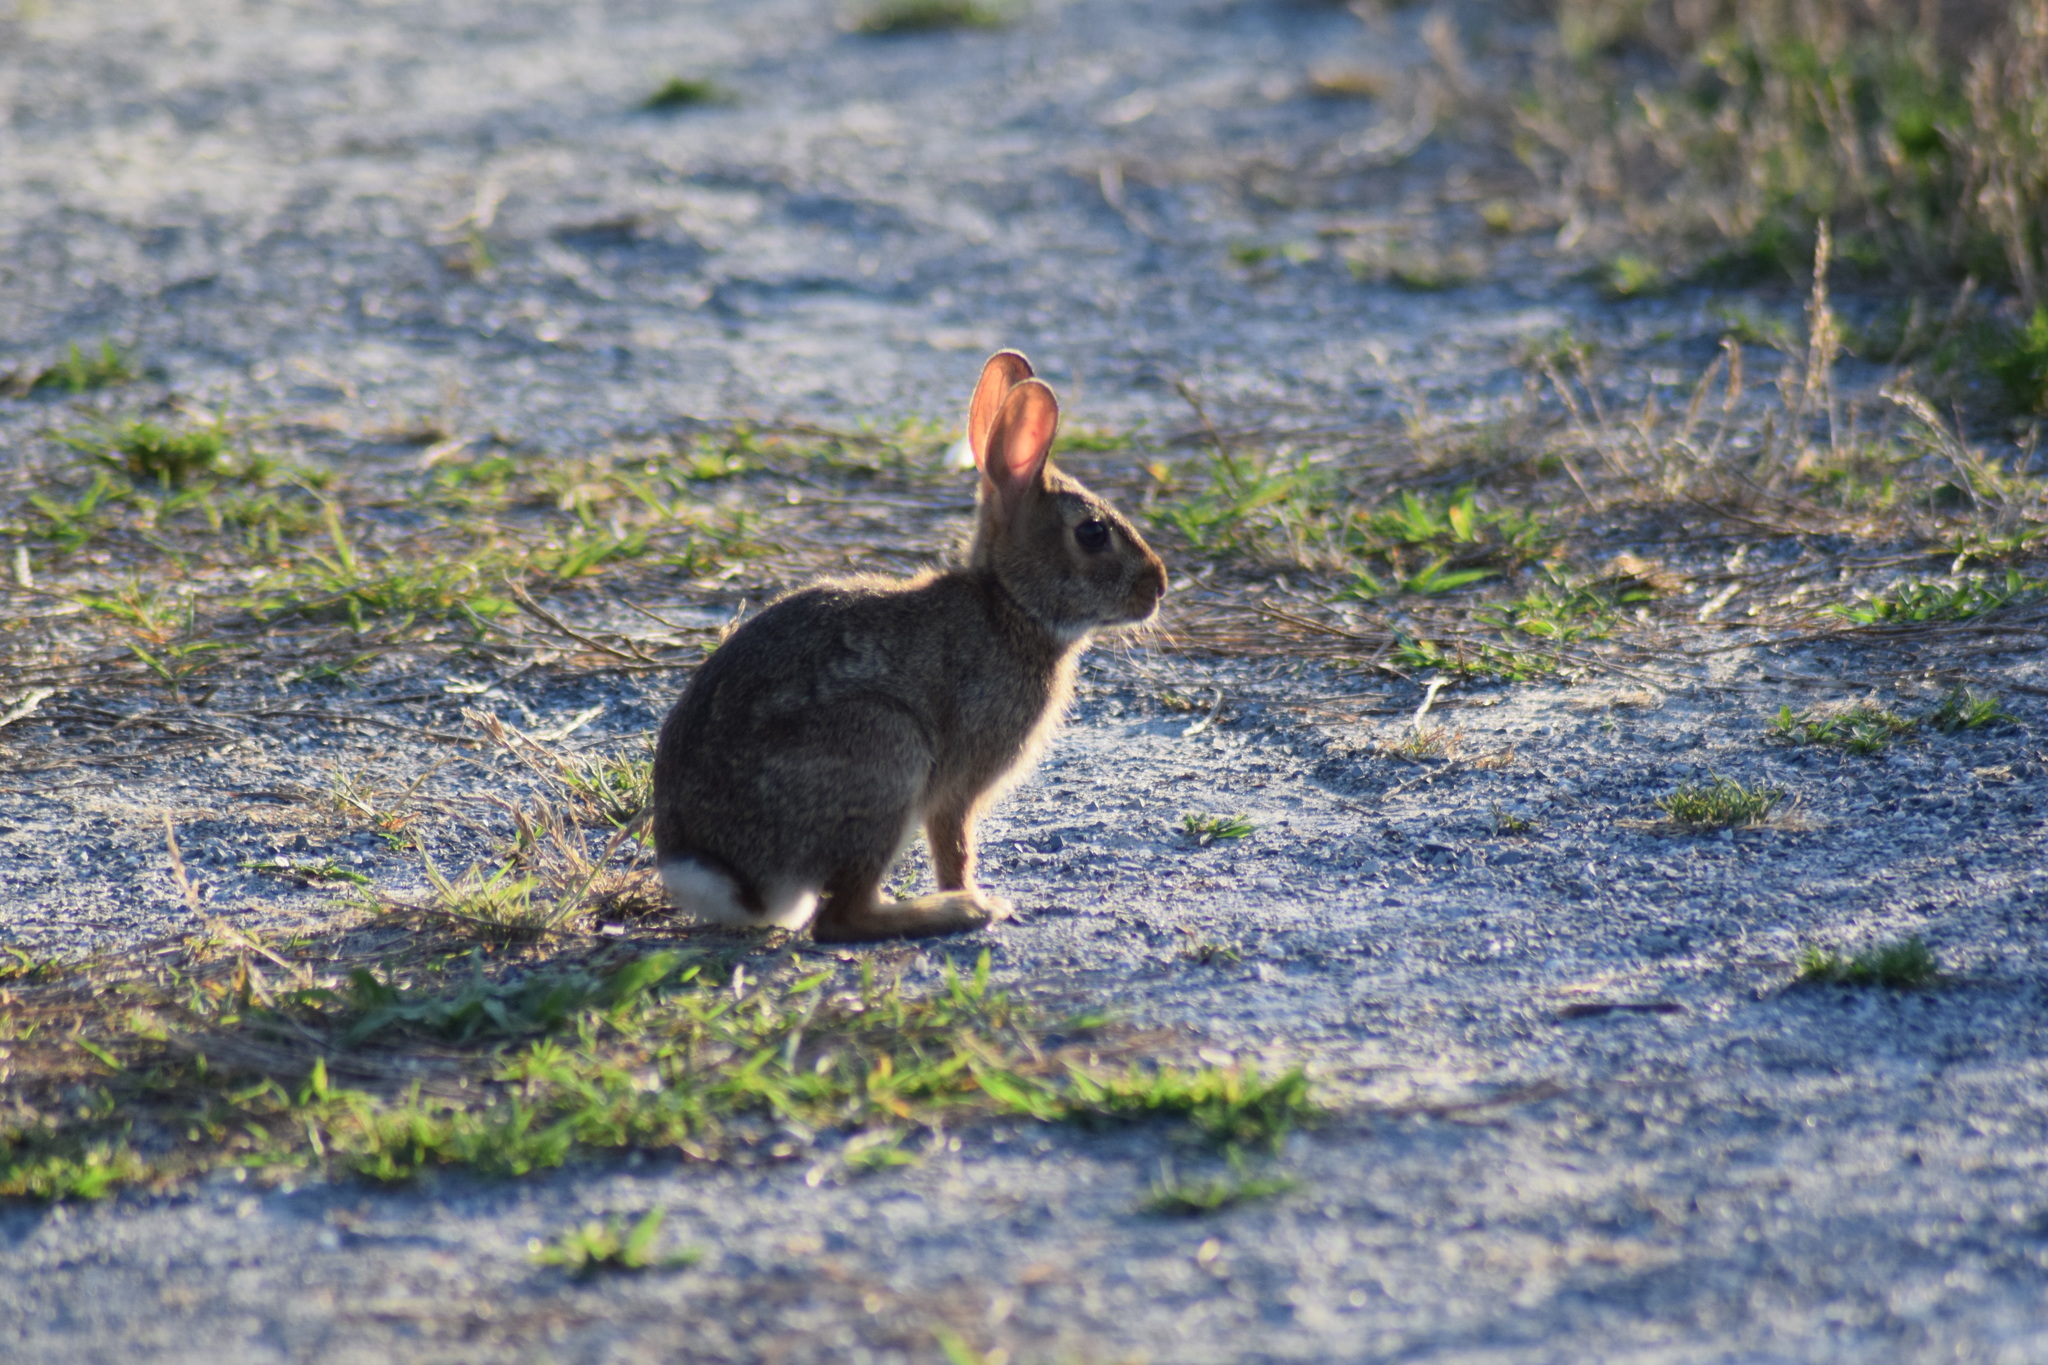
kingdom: Animalia
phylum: Chordata
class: Mammalia
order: Lagomorpha
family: Leporidae
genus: Sylvilagus
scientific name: Sylvilagus floridanus
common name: Eastern cottontail
